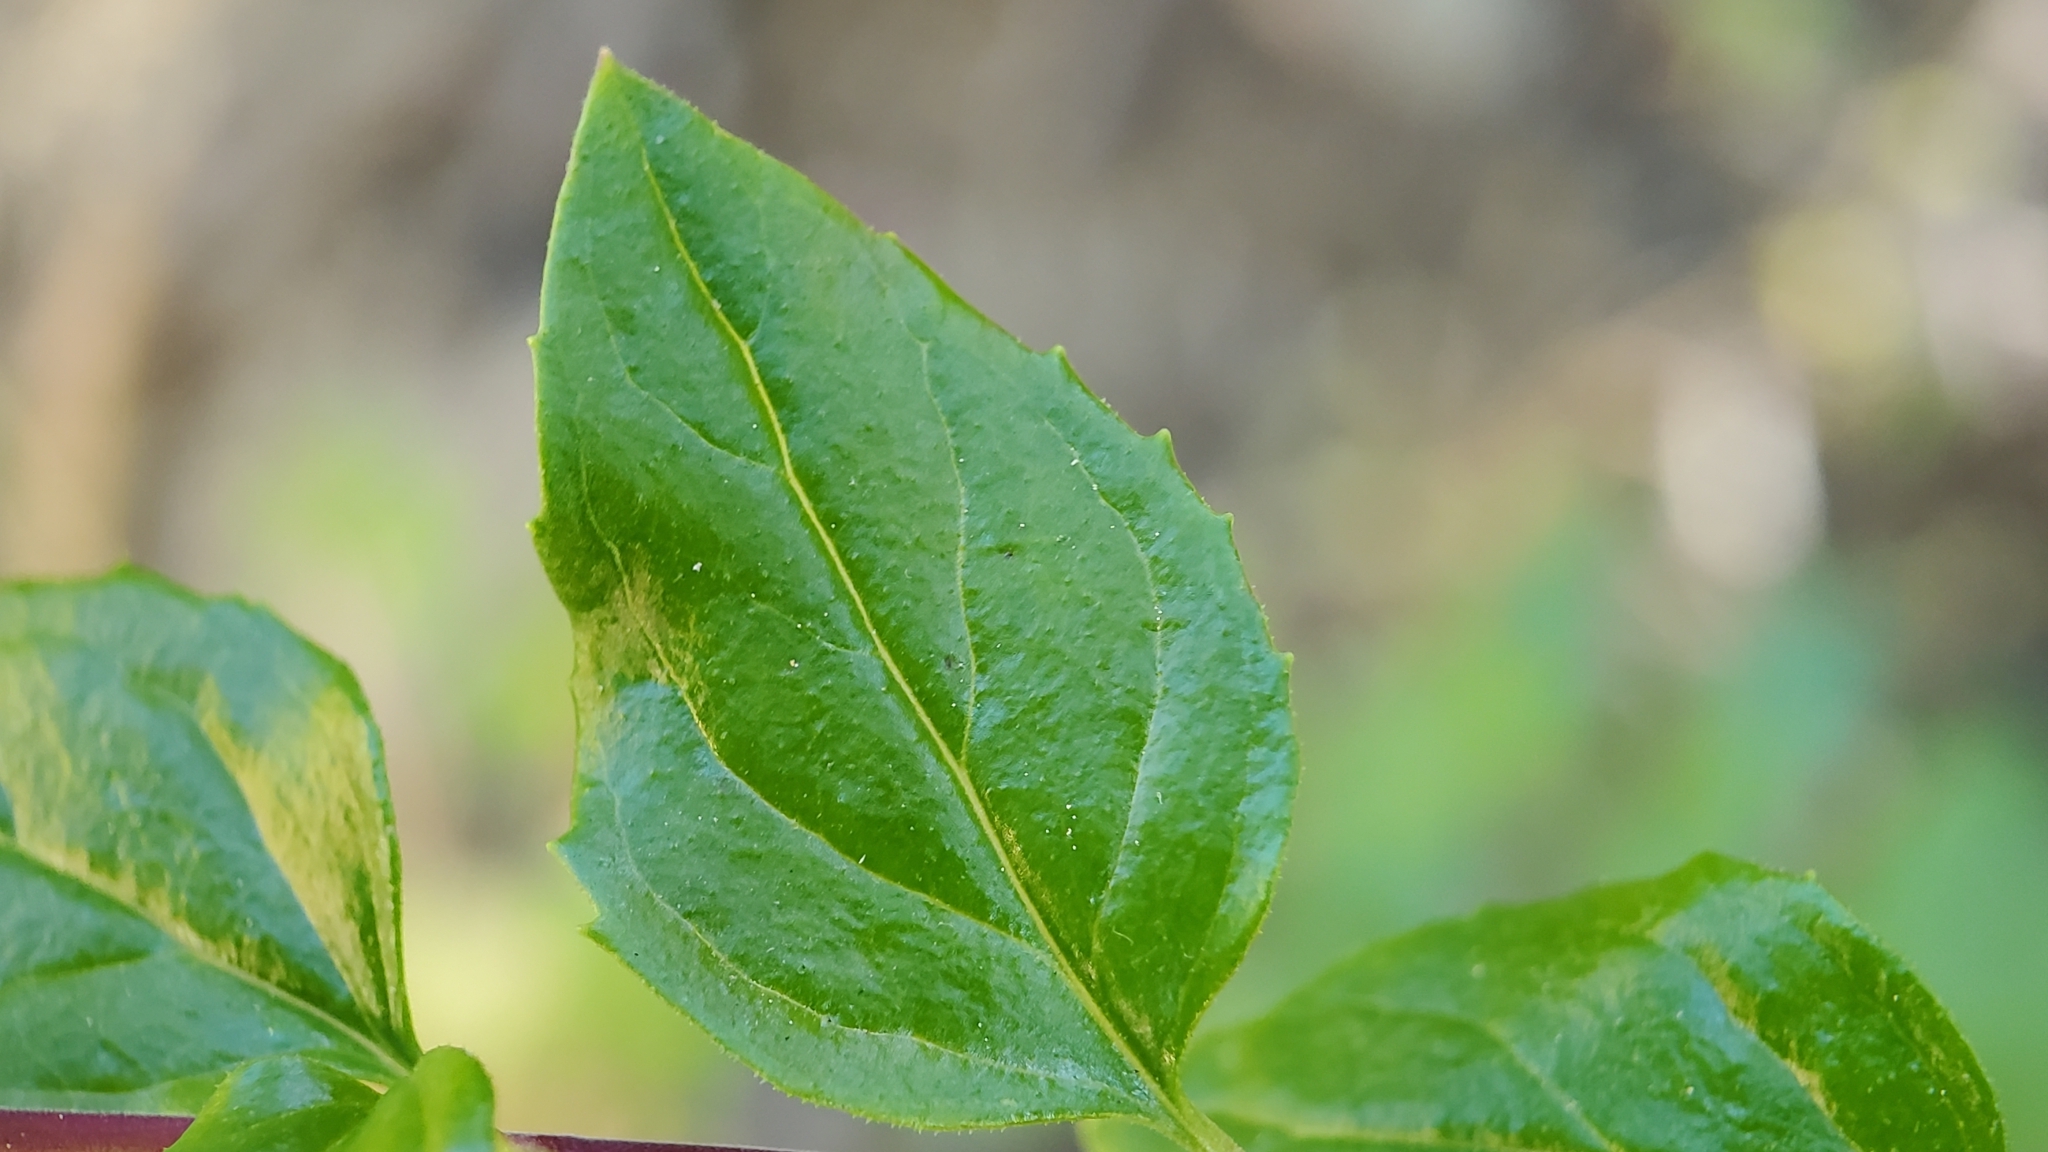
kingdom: Plantae
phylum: Tracheophyta
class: Magnoliopsida
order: Lamiales
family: Plantaginaceae
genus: Keckiella
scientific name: Keckiella cordifolia
